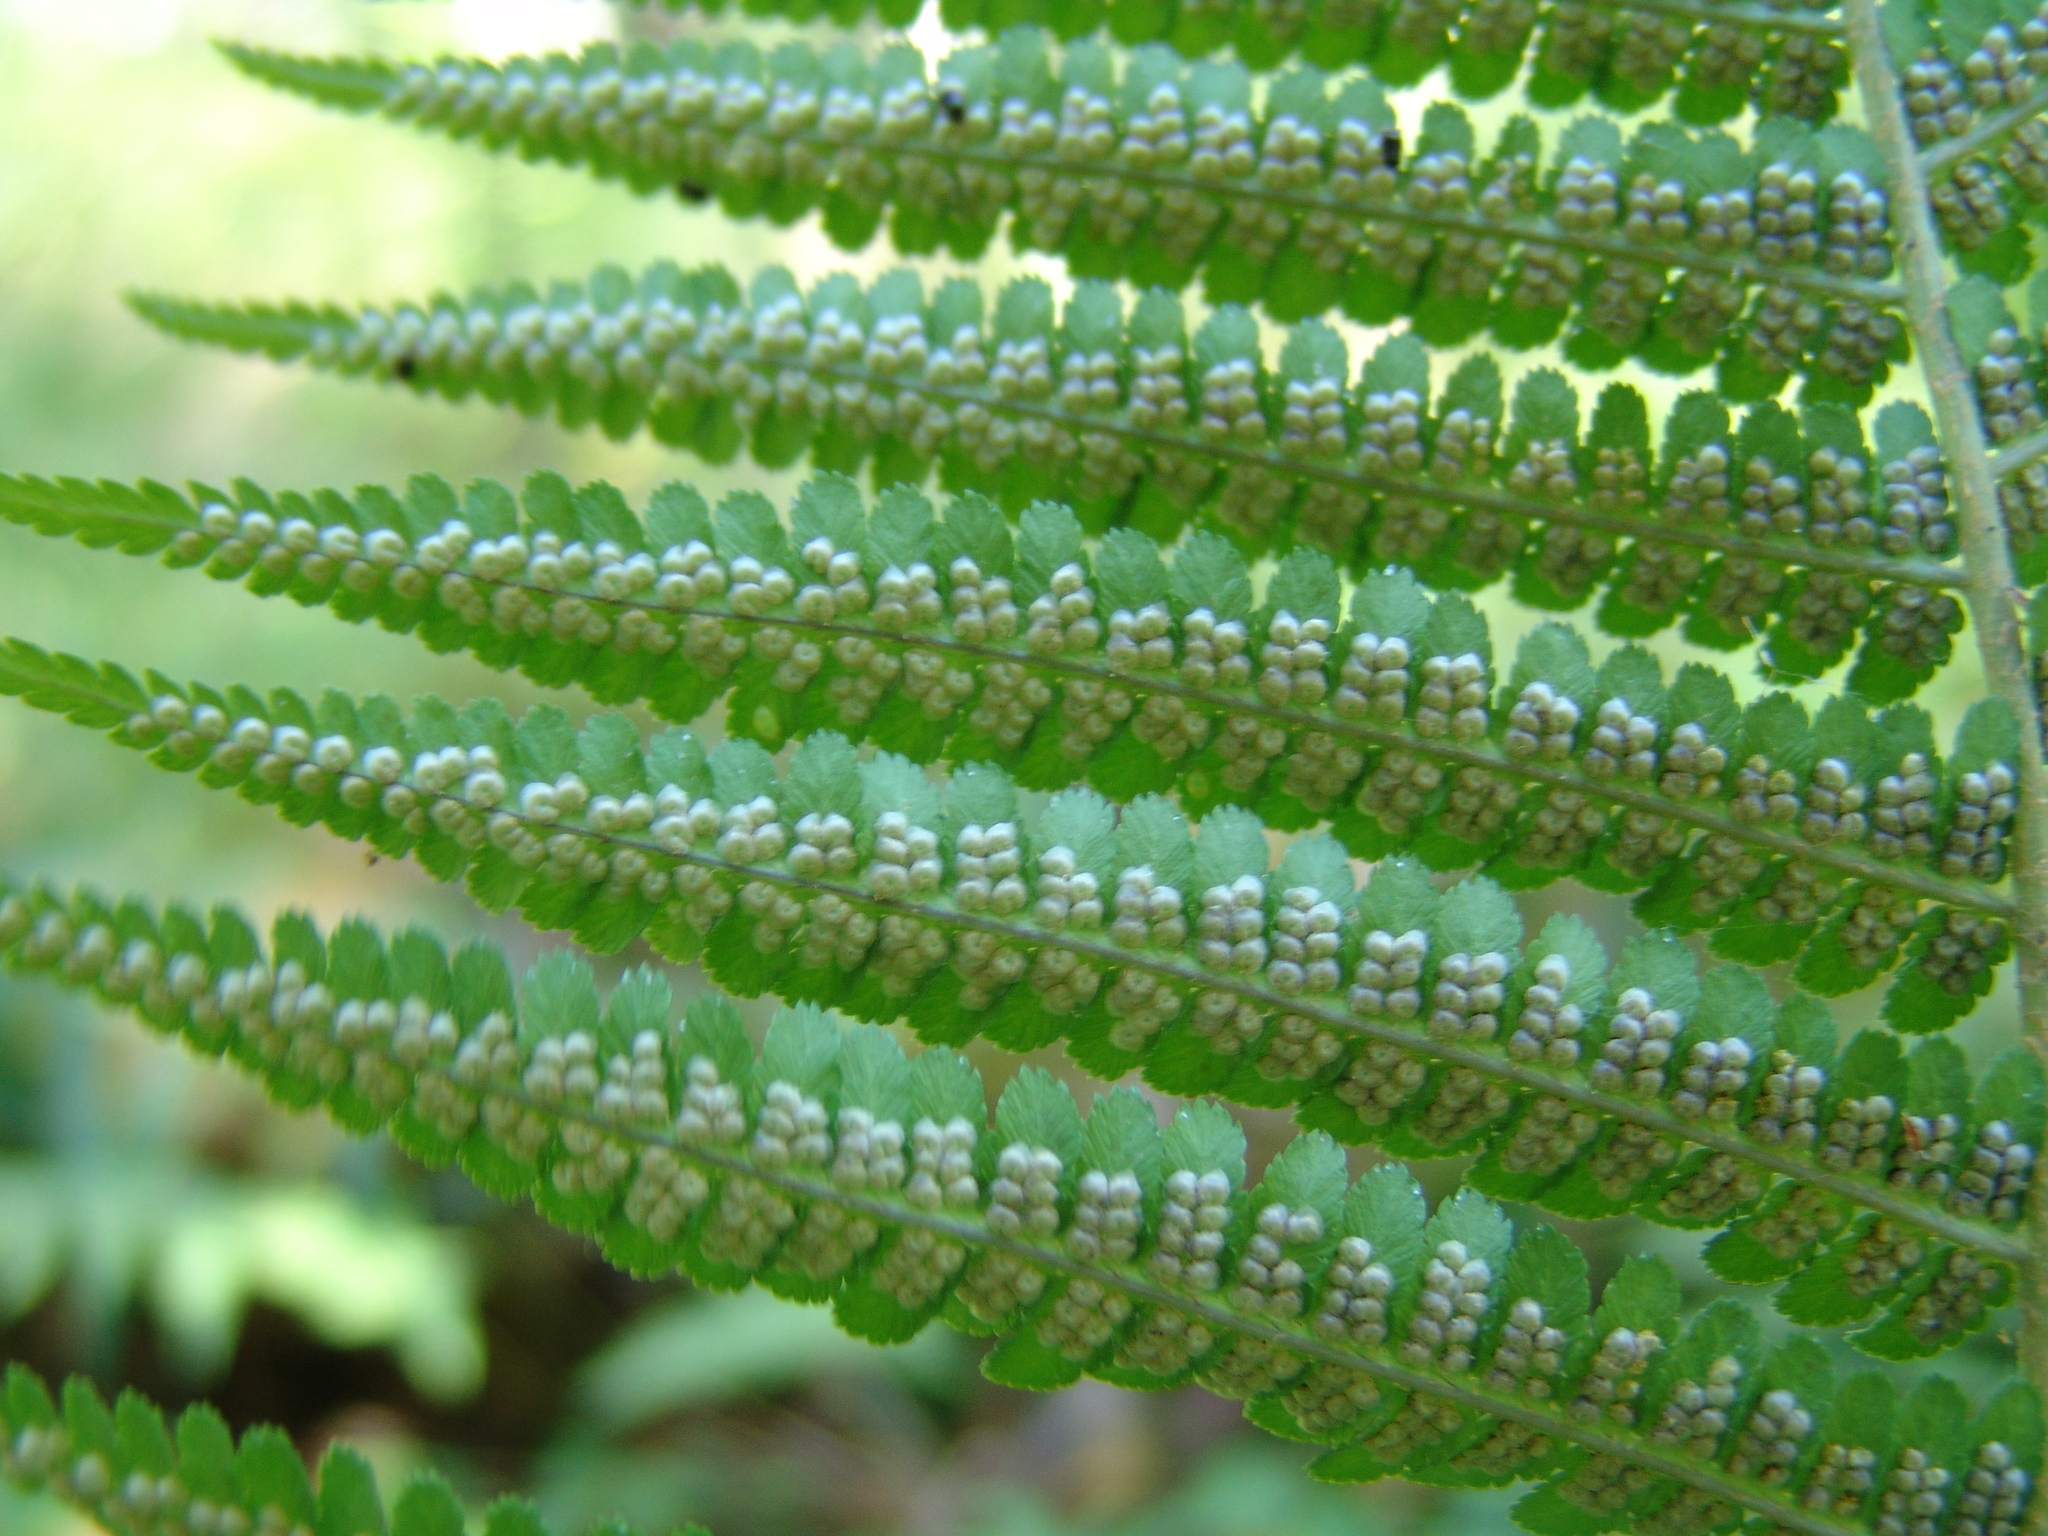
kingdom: Plantae
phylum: Tracheophyta
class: Polypodiopsida
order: Polypodiales
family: Dryopteridaceae
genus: Dryopteris
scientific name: Dryopteris filix-mas
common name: Male fern
